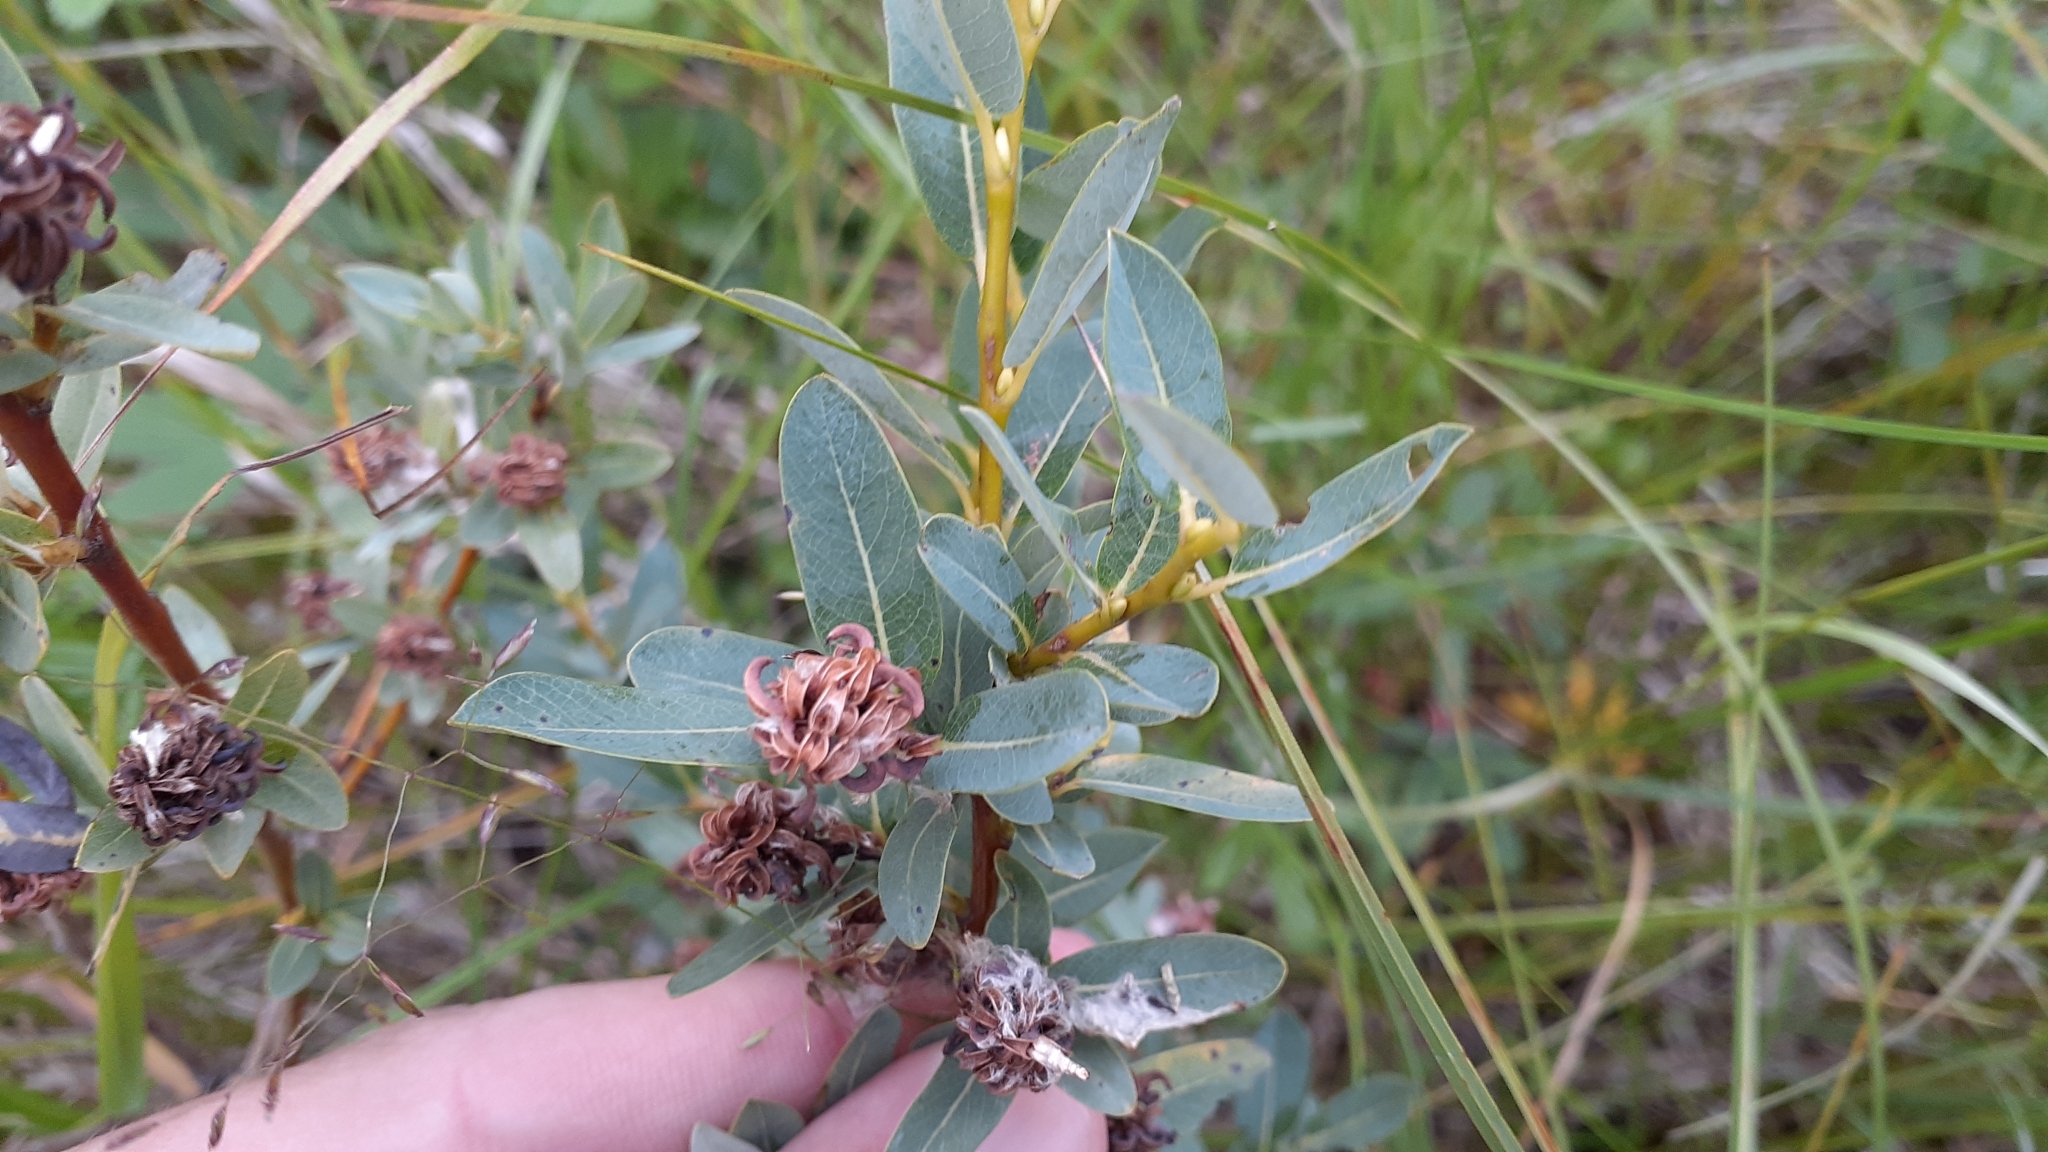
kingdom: Plantae
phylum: Tracheophyta
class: Magnoliopsida
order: Malpighiales
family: Salicaceae
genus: Salix
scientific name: Salix pedicellaris
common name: Bog willow
